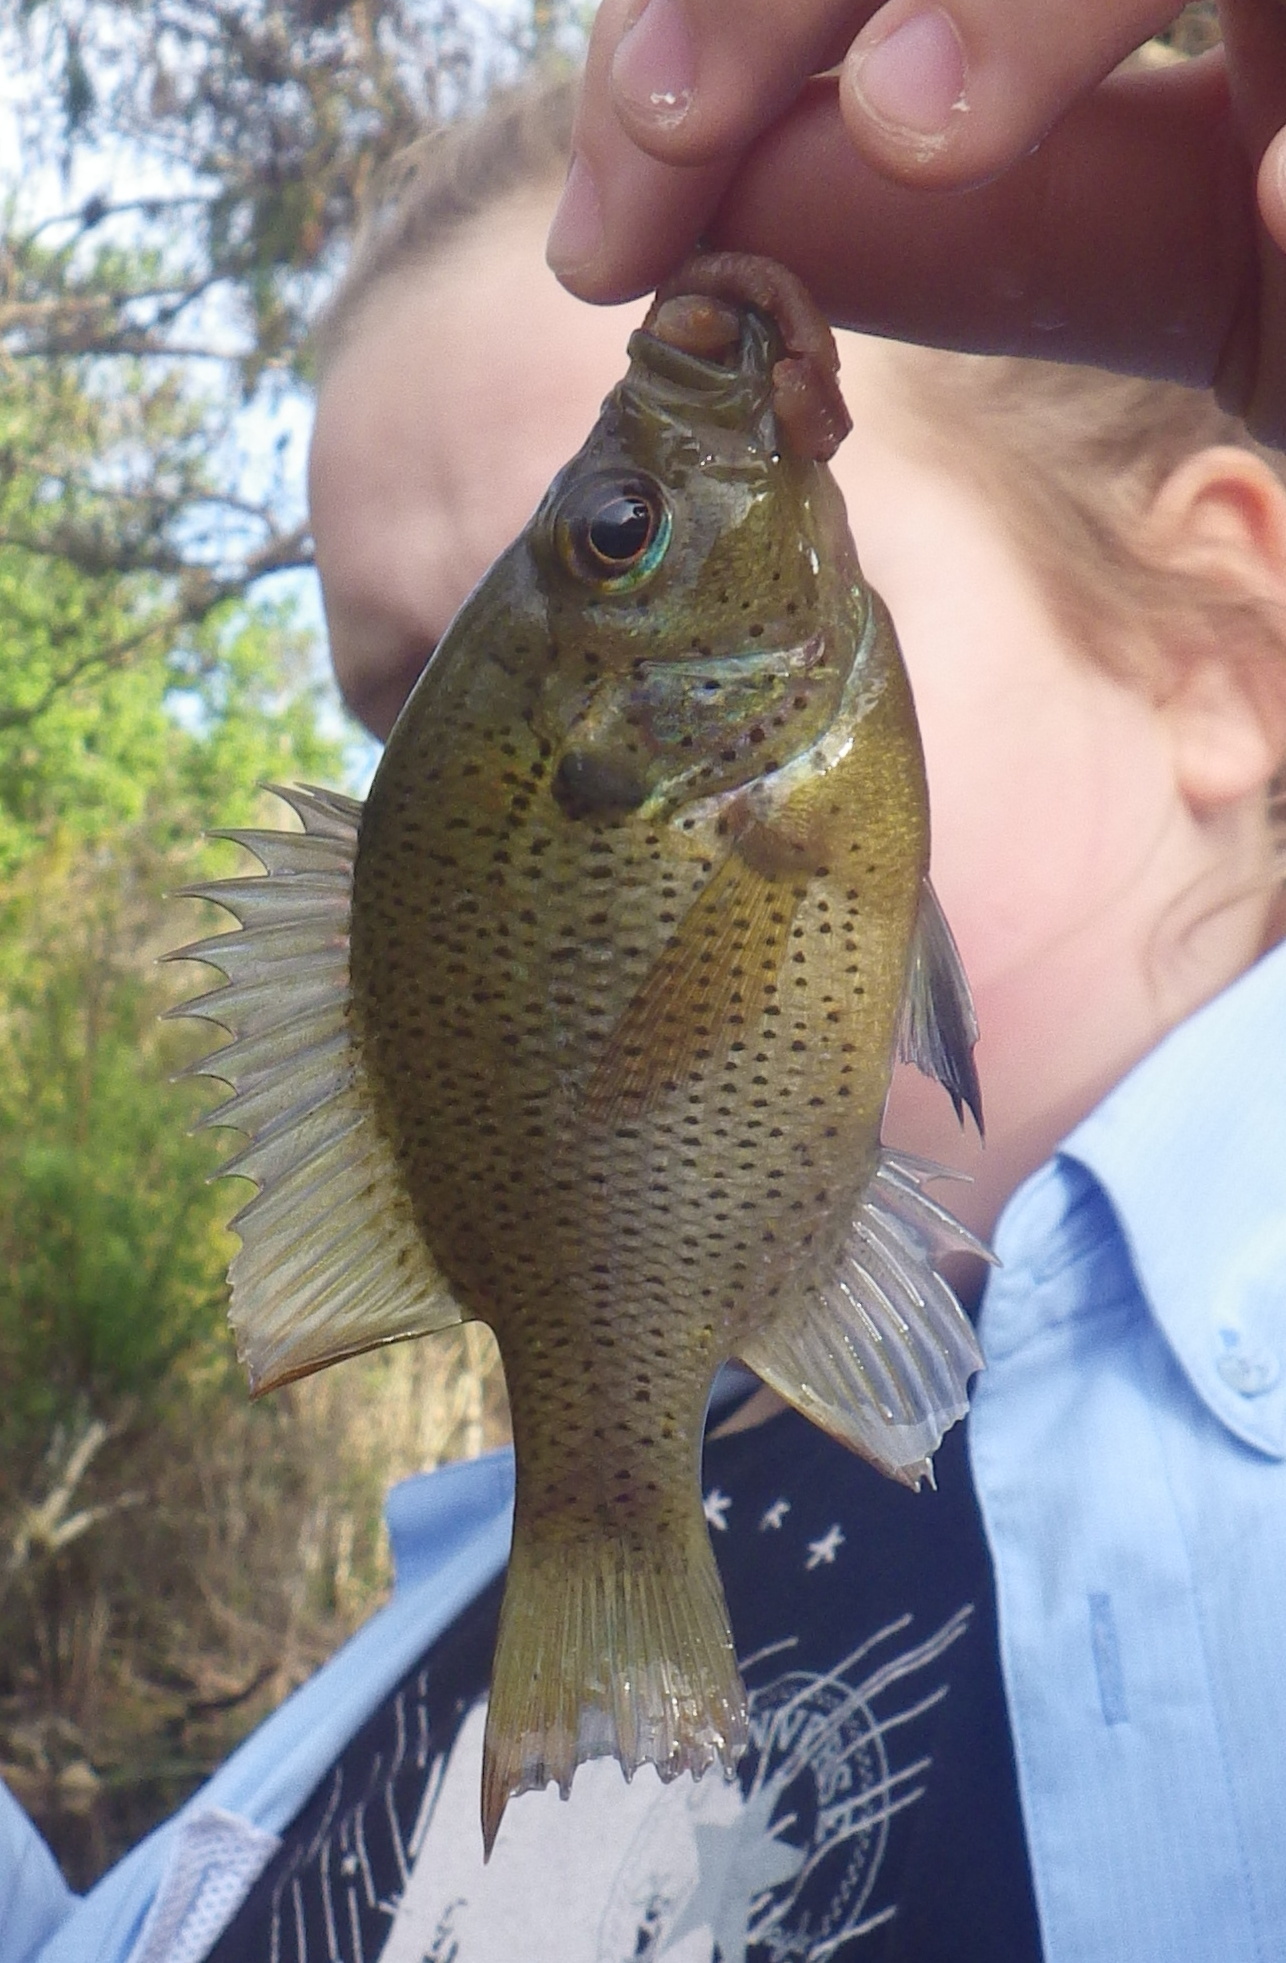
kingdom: Animalia
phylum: Chordata
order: Perciformes
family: Centrarchidae
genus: Lepomis
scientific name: Lepomis punctatus
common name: Spotted sunfish
